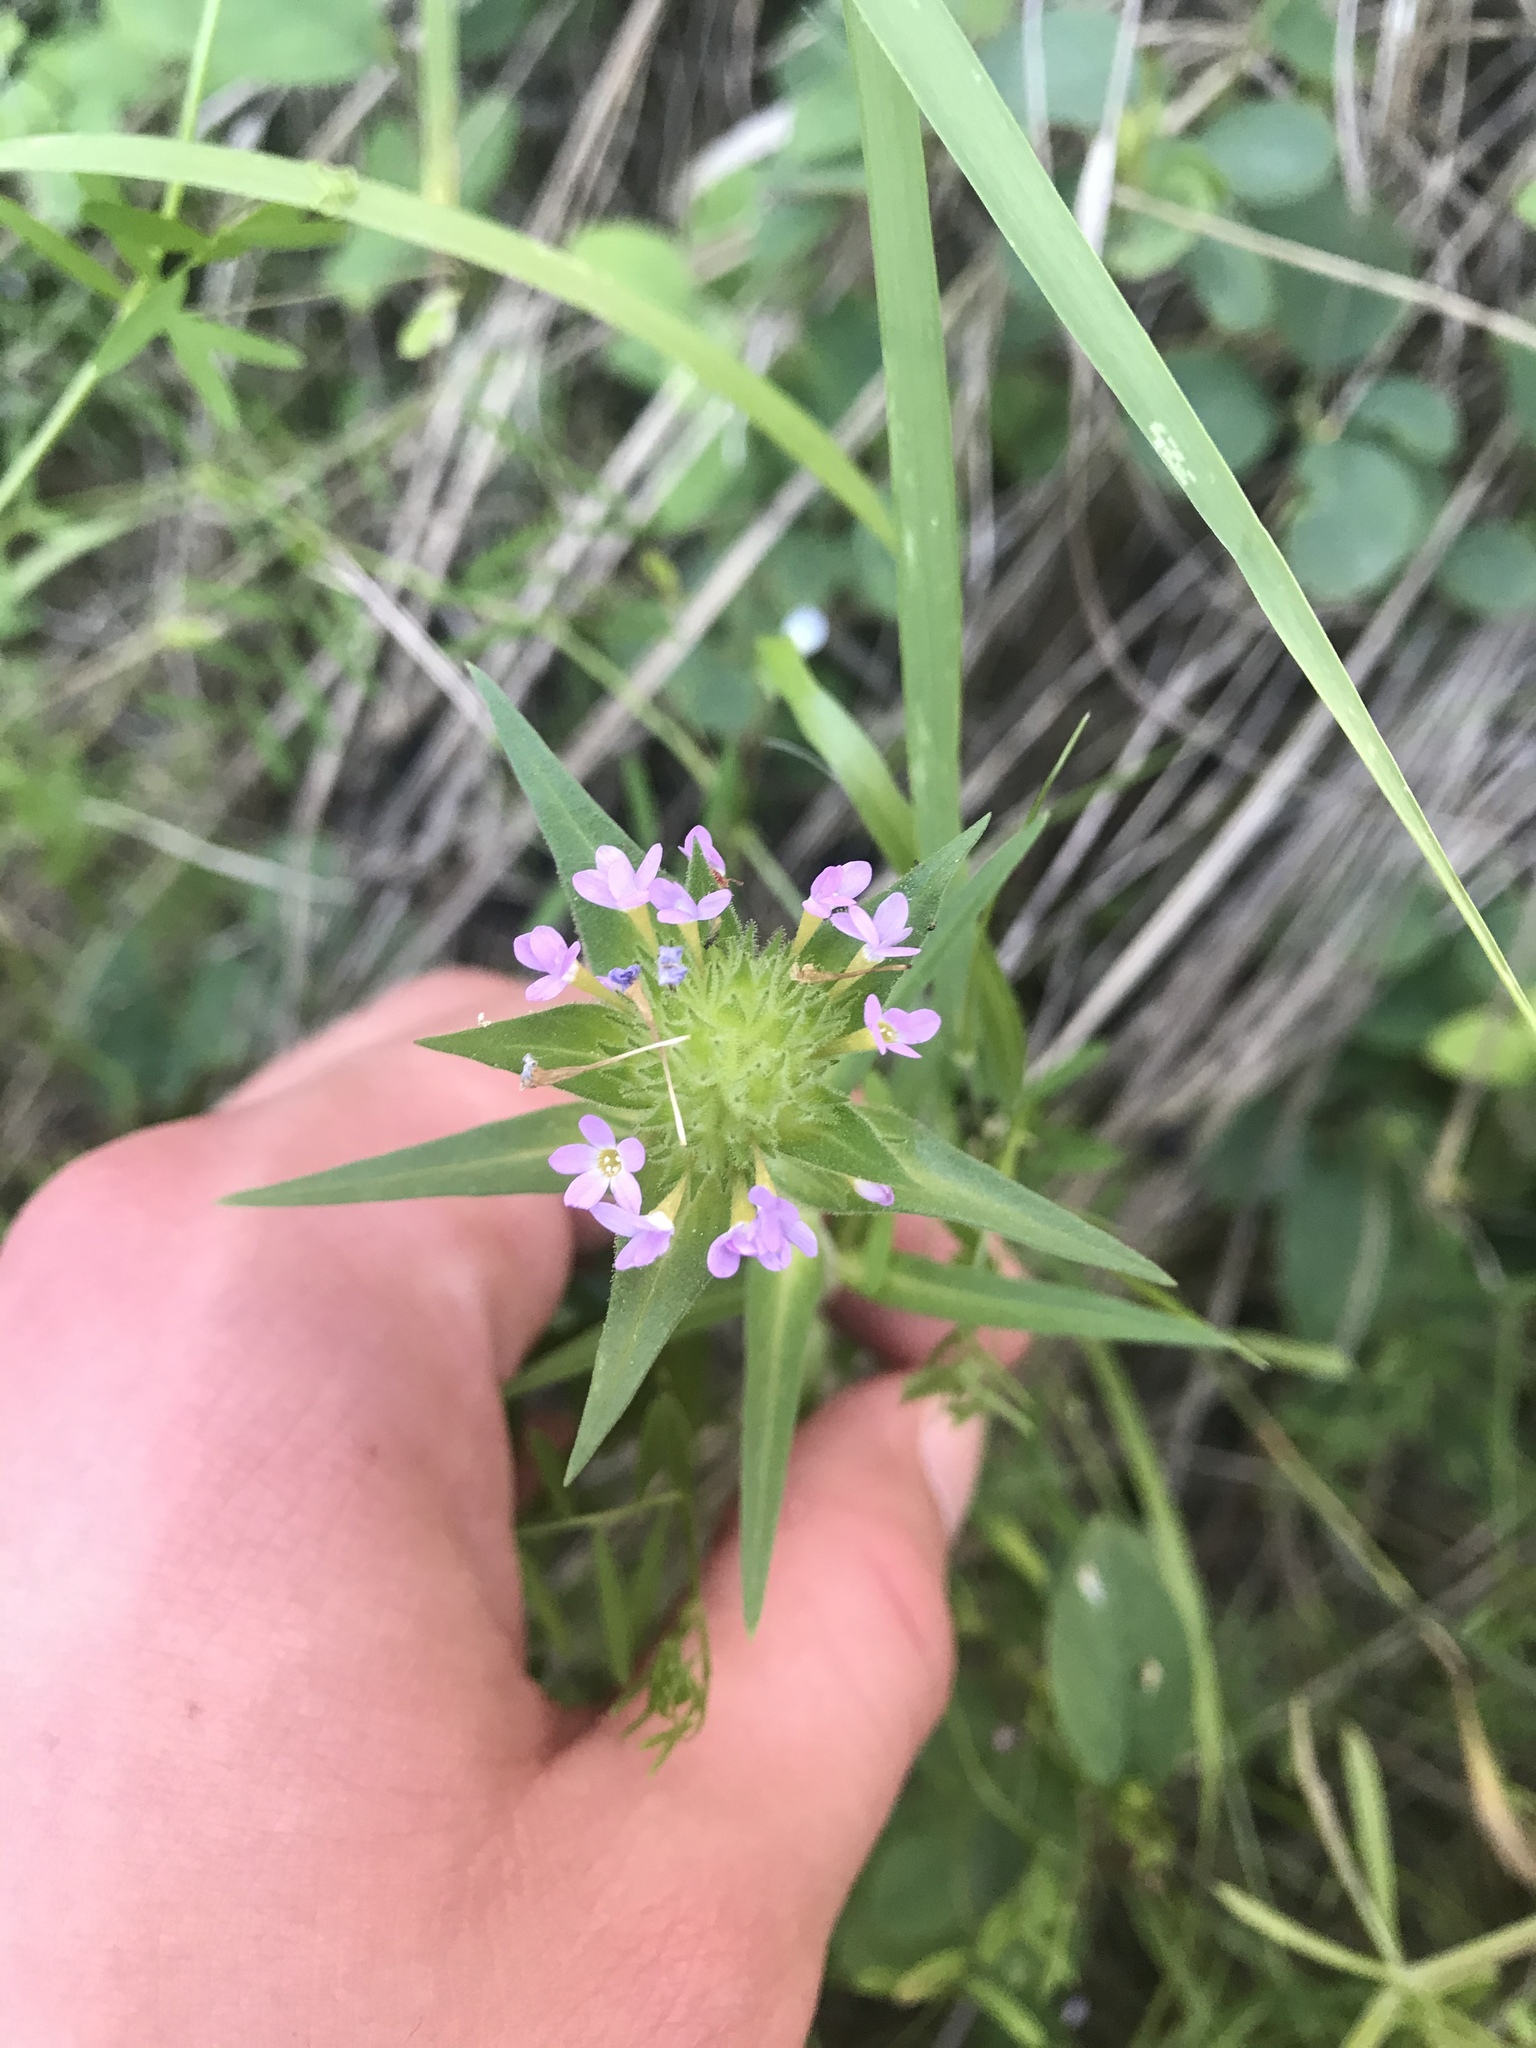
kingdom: Plantae
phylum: Tracheophyta
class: Magnoliopsida
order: Ericales
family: Polemoniaceae
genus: Collomia
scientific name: Collomia linearis
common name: Tiny trumpet
